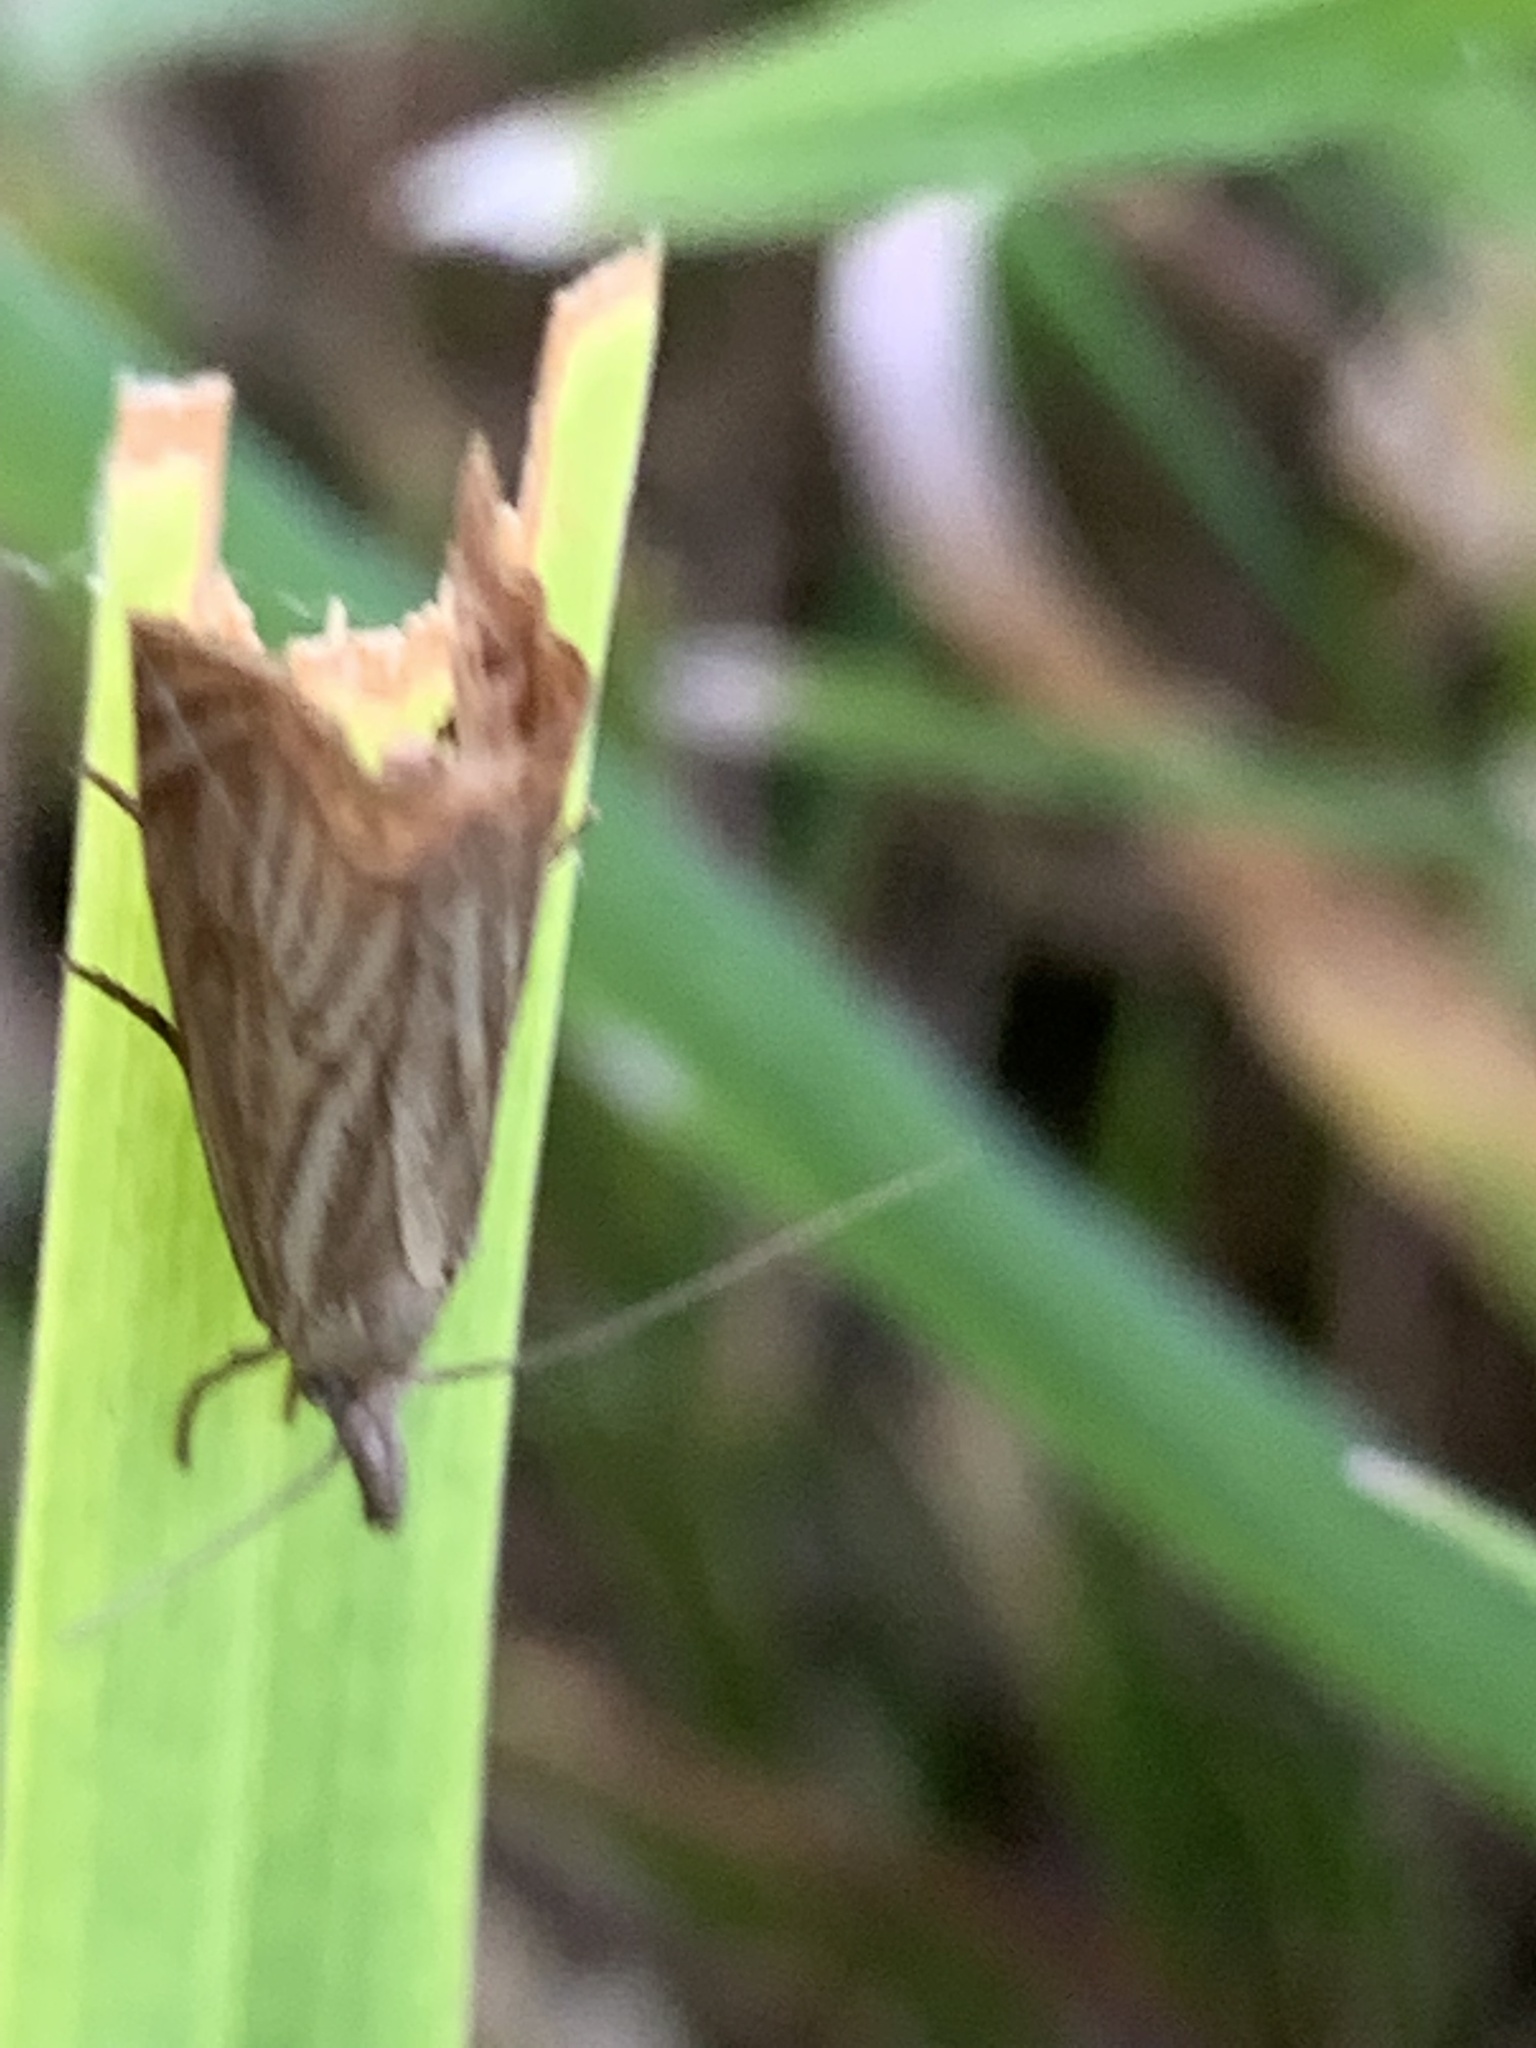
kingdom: Animalia
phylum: Arthropoda
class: Insecta
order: Lepidoptera
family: Crambidae
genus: Chrysoteuchia
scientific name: Chrysoteuchia culmella
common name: Garden grass-veneer
